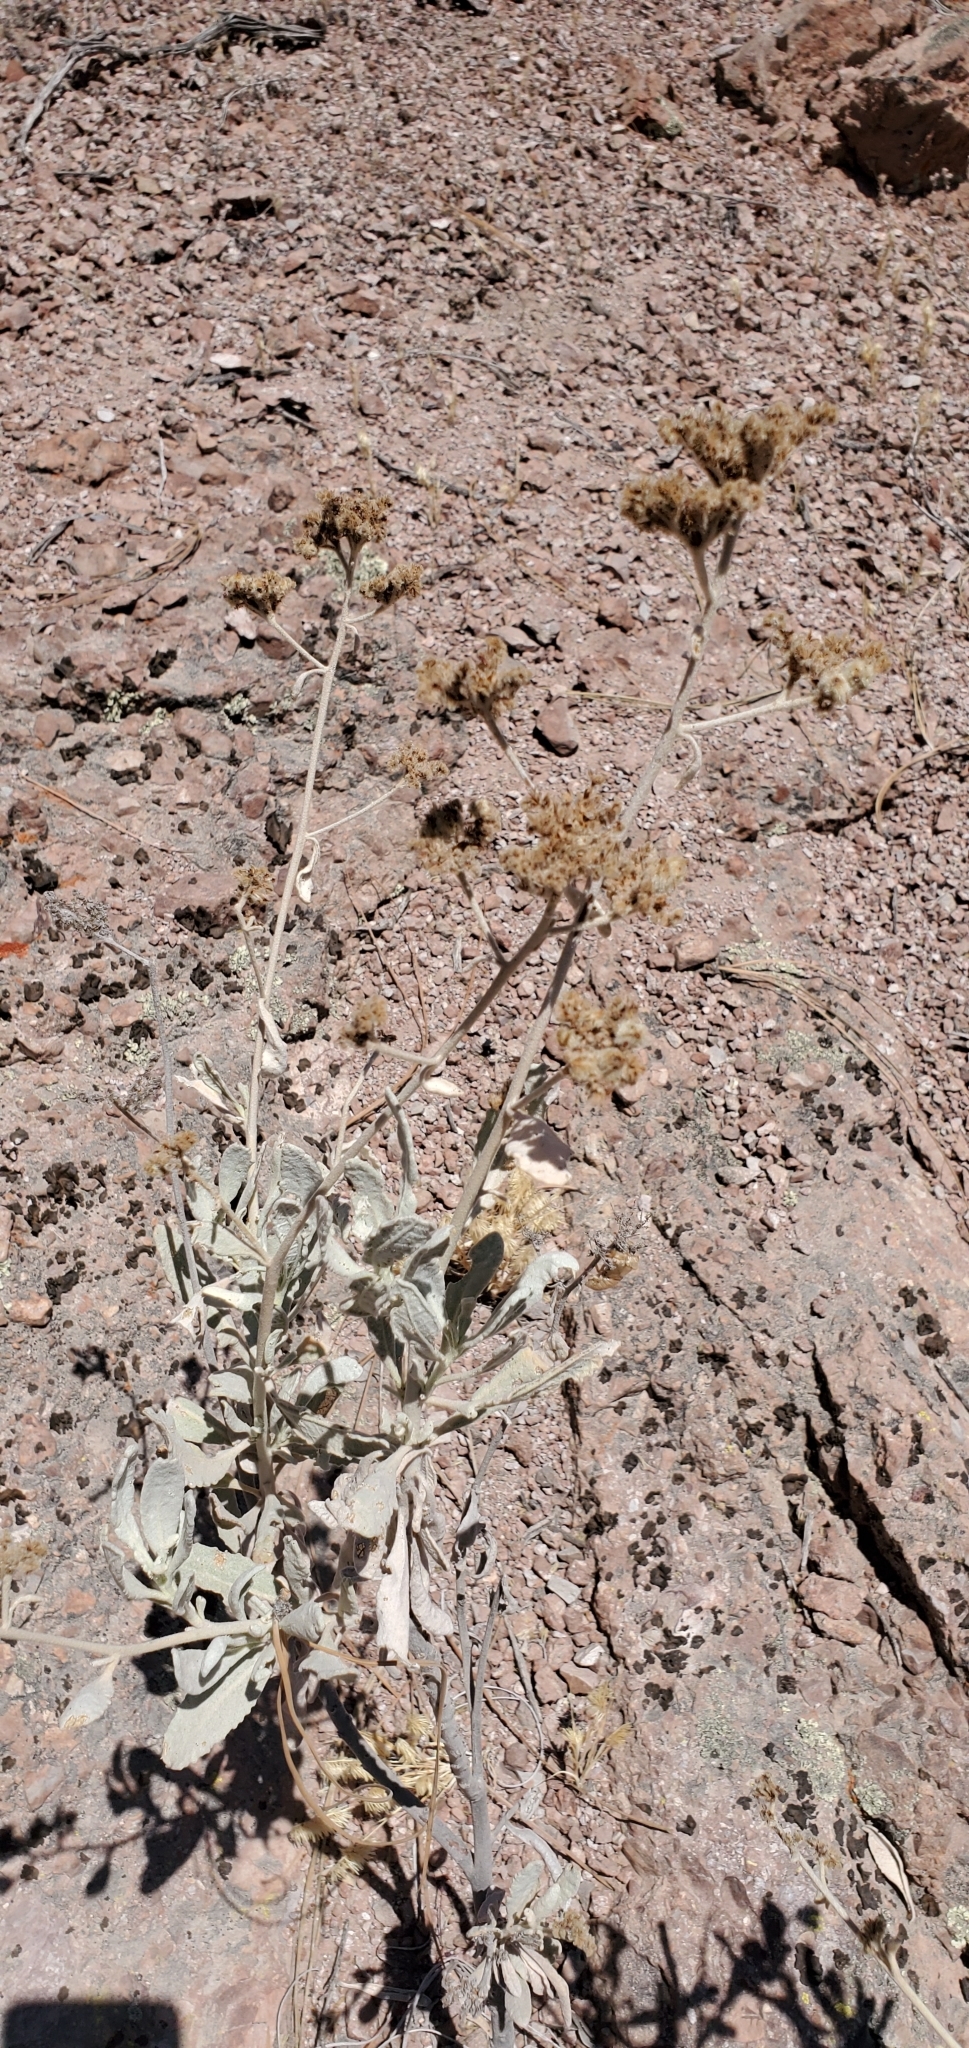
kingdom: Plantae
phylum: Tracheophyta
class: Magnoliopsida
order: Boraginales
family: Namaceae
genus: Eriodictyon
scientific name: Eriodictyon tomentosum
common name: Woolly yerba-santa
